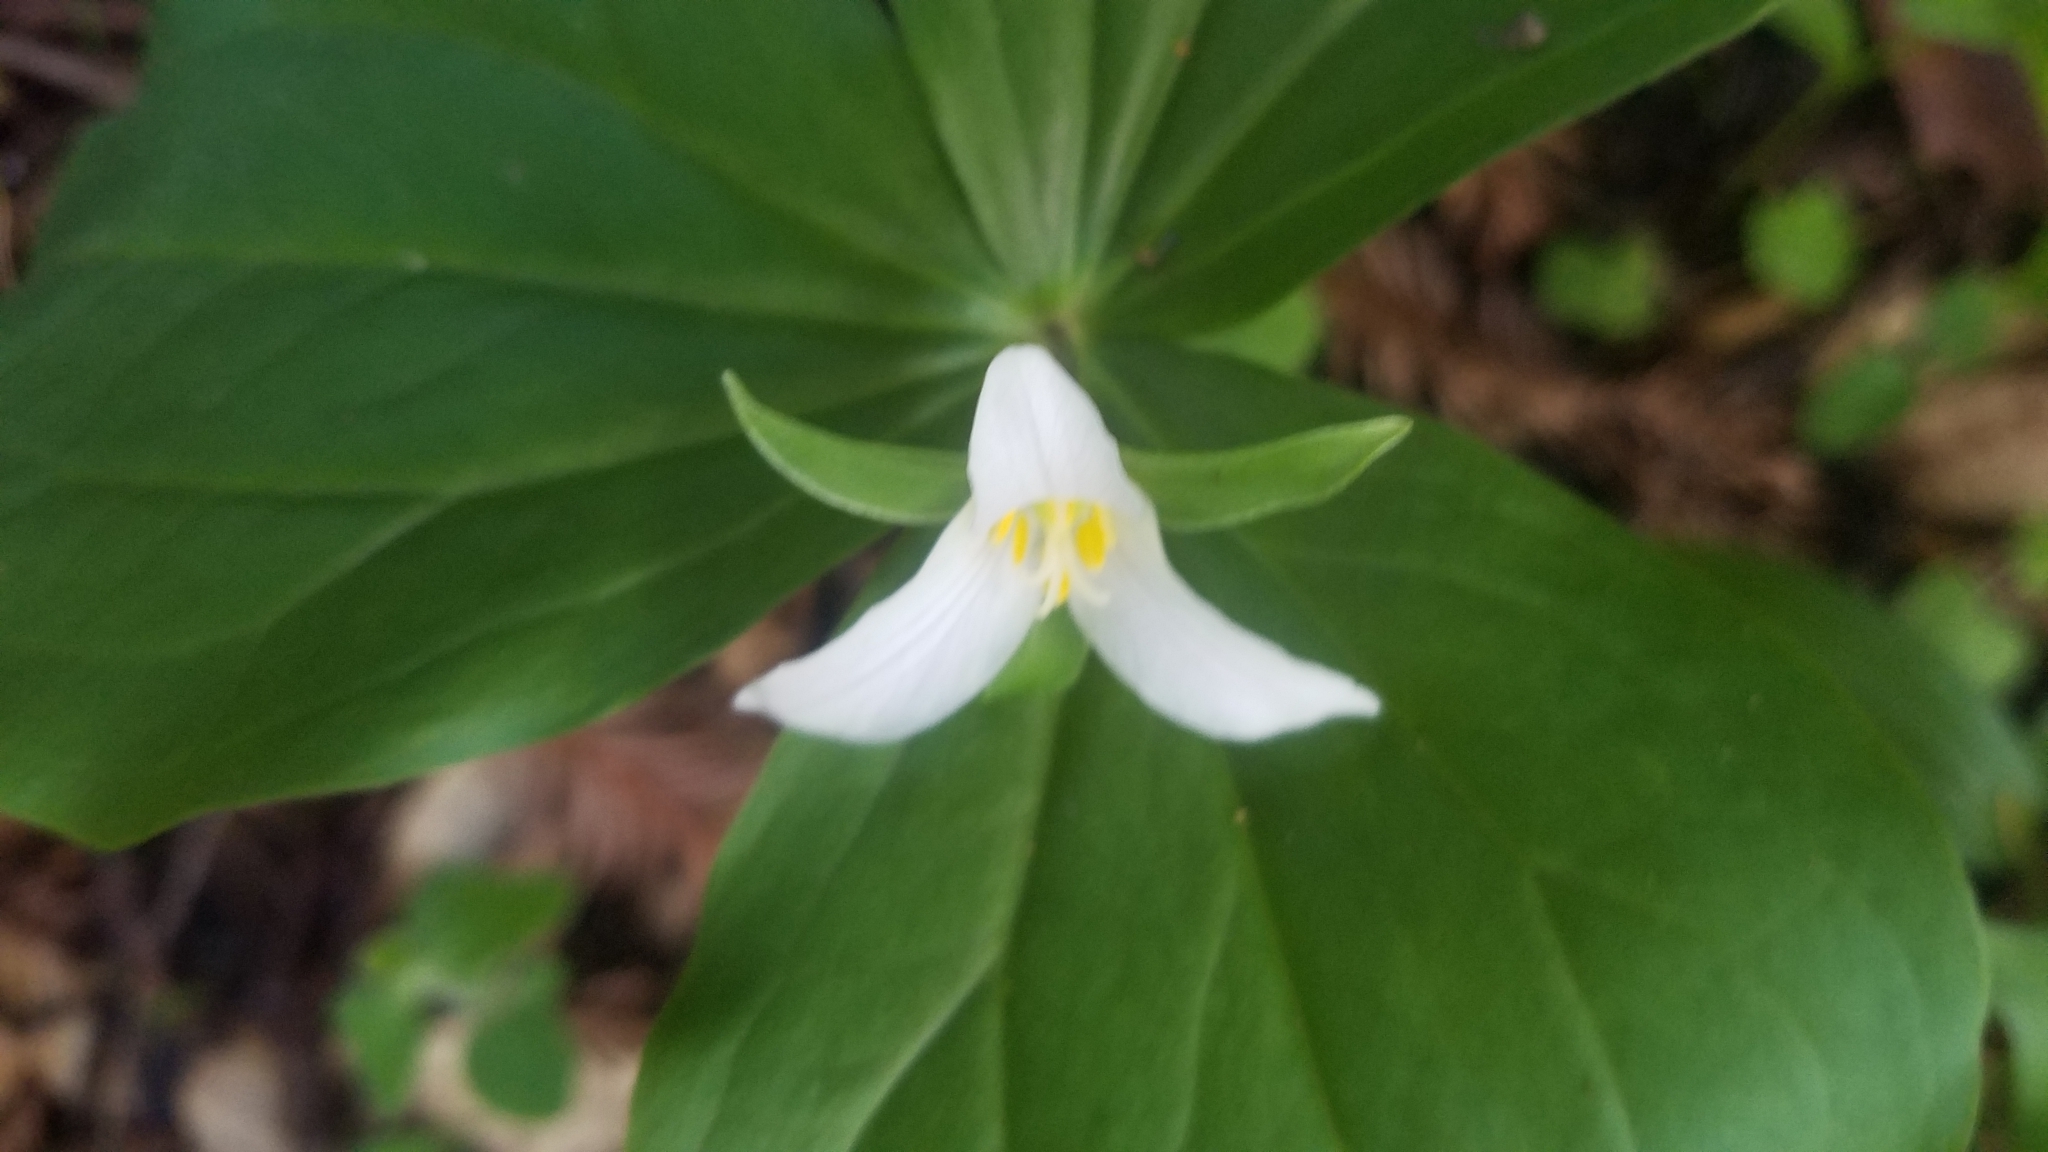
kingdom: Plantae
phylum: Tracheophyta
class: Liliopsida
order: Liliales
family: Melanthiaceae
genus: Trillium
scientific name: Trillium ovatum
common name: Pacific trillium
